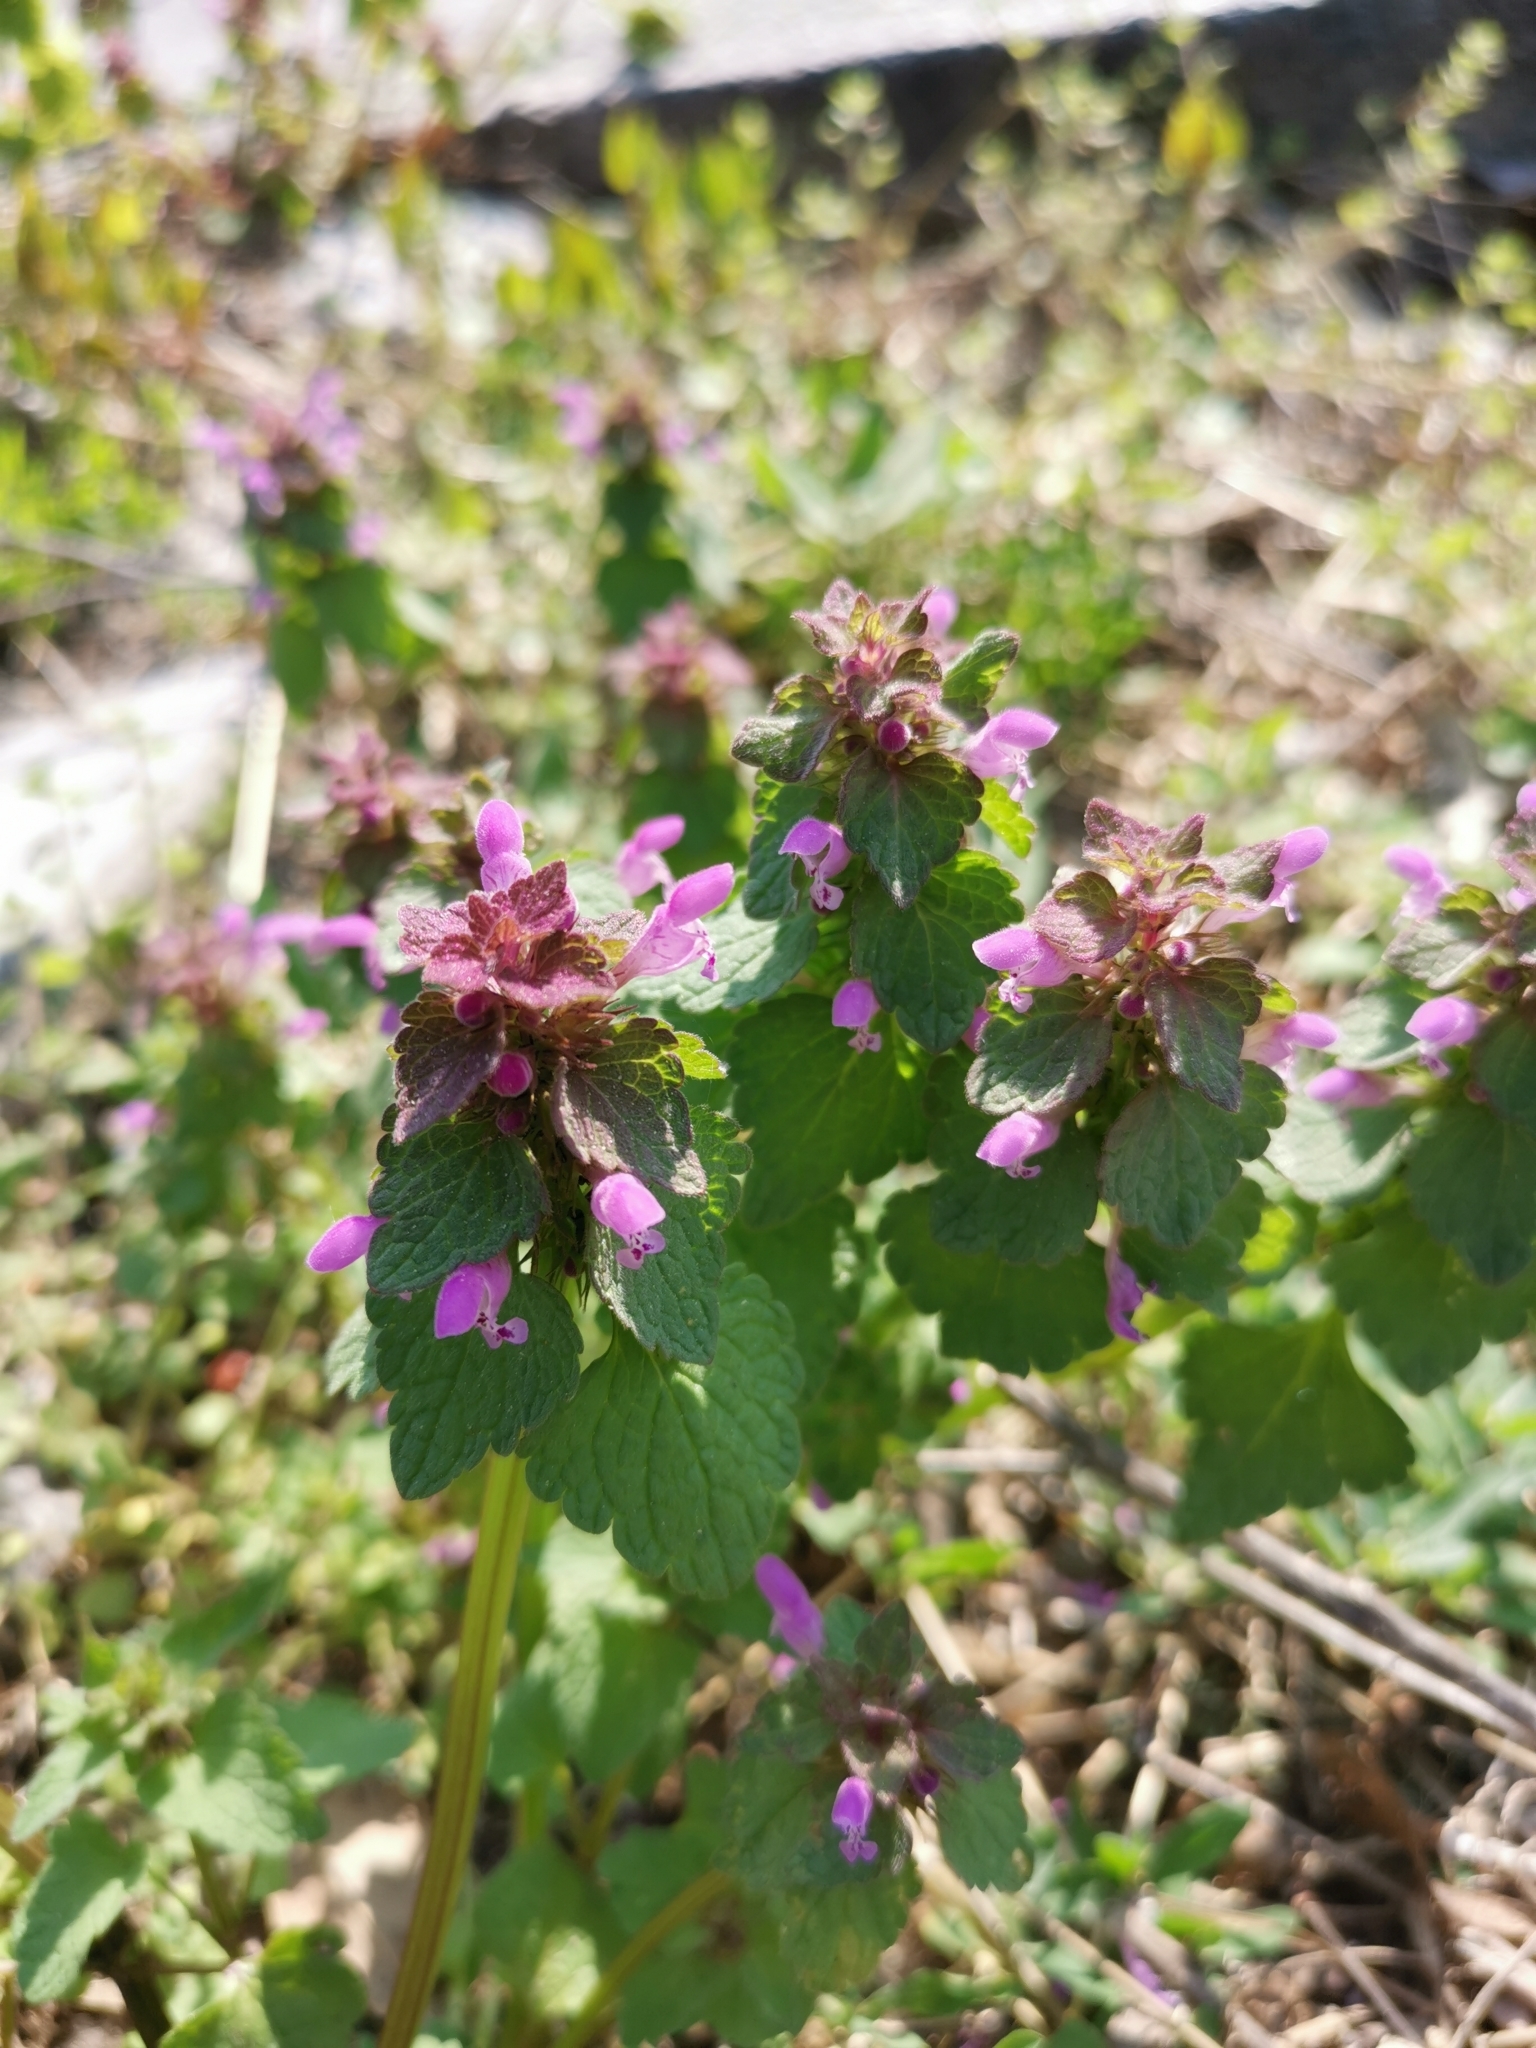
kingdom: Plantae
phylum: Tracheophyta
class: Magnoliopsida
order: Lamiales
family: Lamiaceae
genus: Lamium
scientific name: Lamium purpureum
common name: Red dead-nettle
